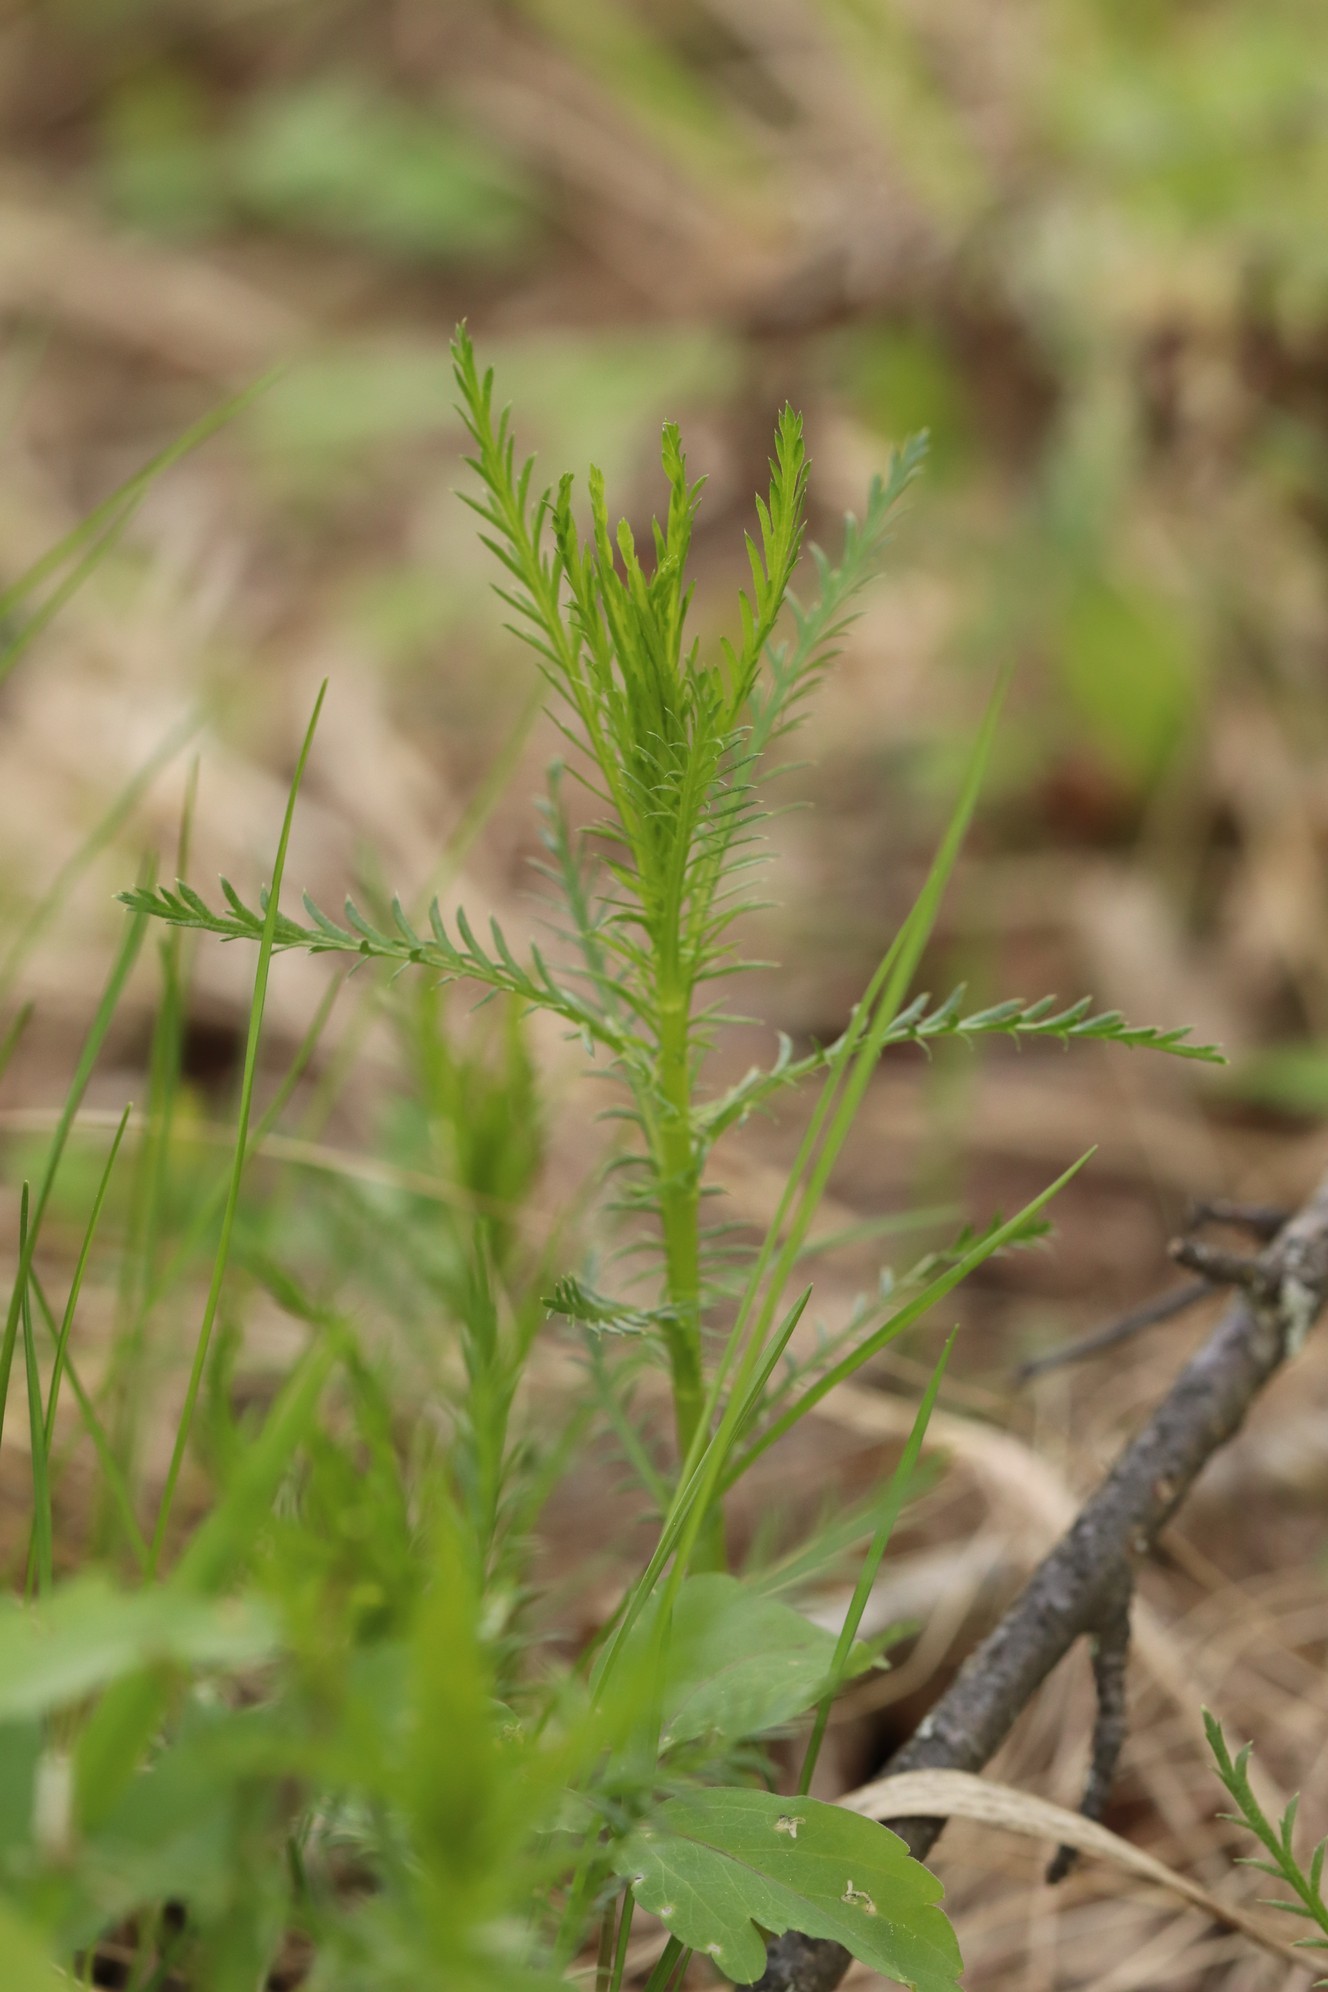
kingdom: Plantae
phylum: Tracheophyta
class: Magnoliopsida
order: Asterales
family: Asteraceae
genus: Achillea
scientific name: Achillea impatiens
